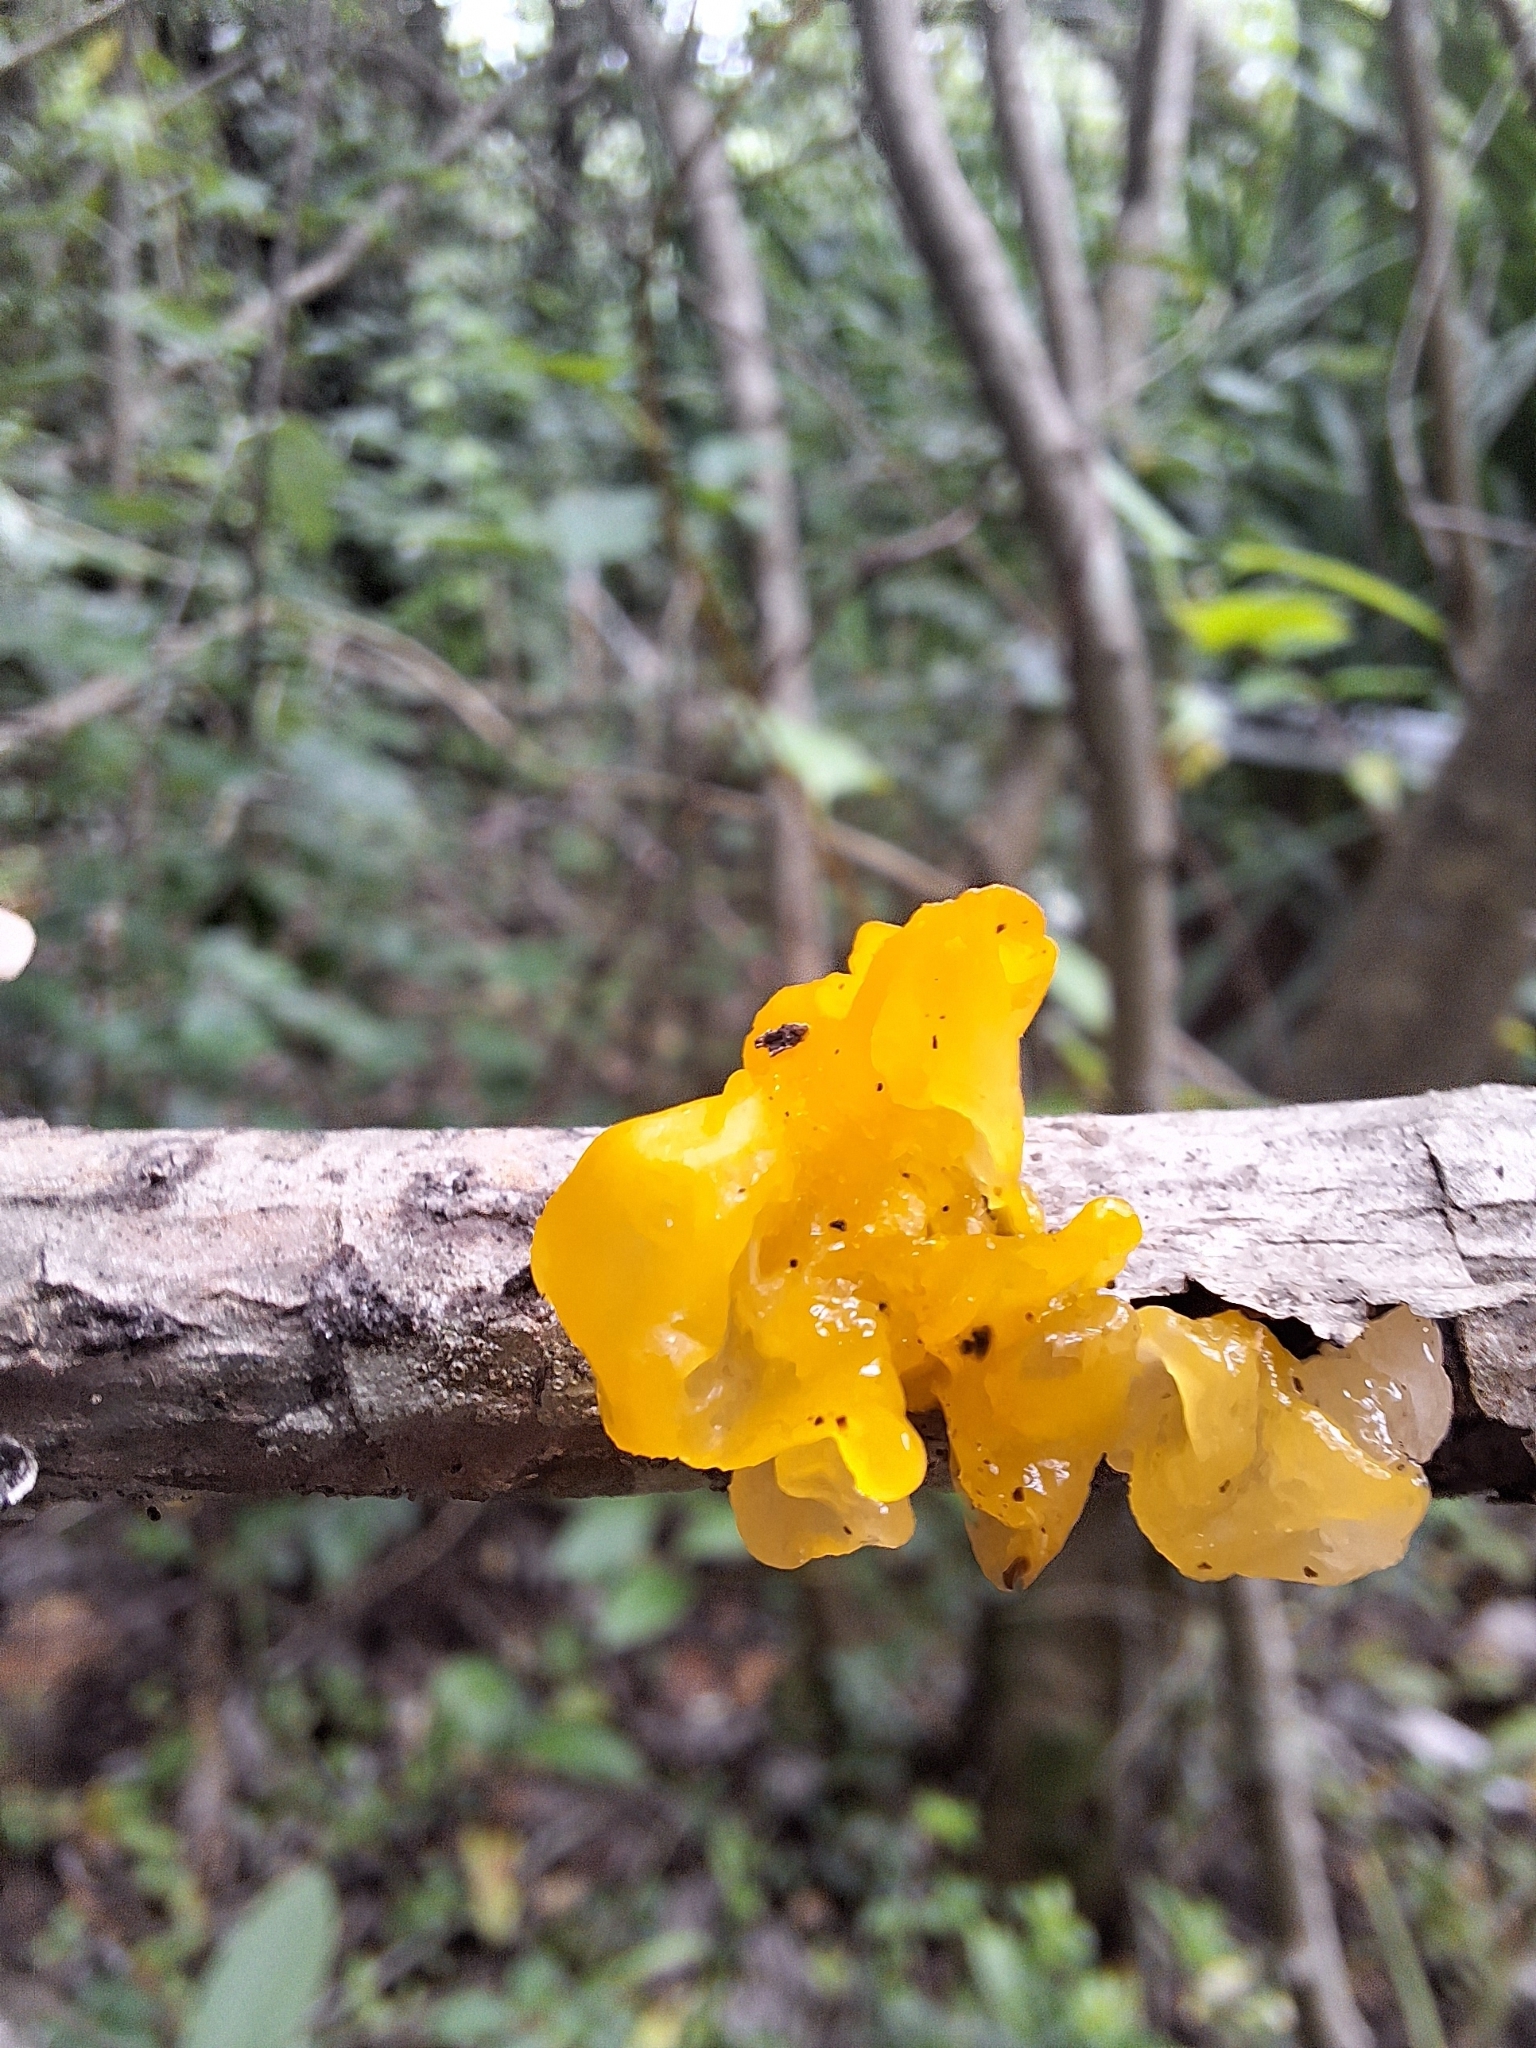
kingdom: Fungi
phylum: Basidiomycota
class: Tremellomycetes
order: Tremellales
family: Tremellaceae
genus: Tremella
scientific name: Tremella mesenterica
